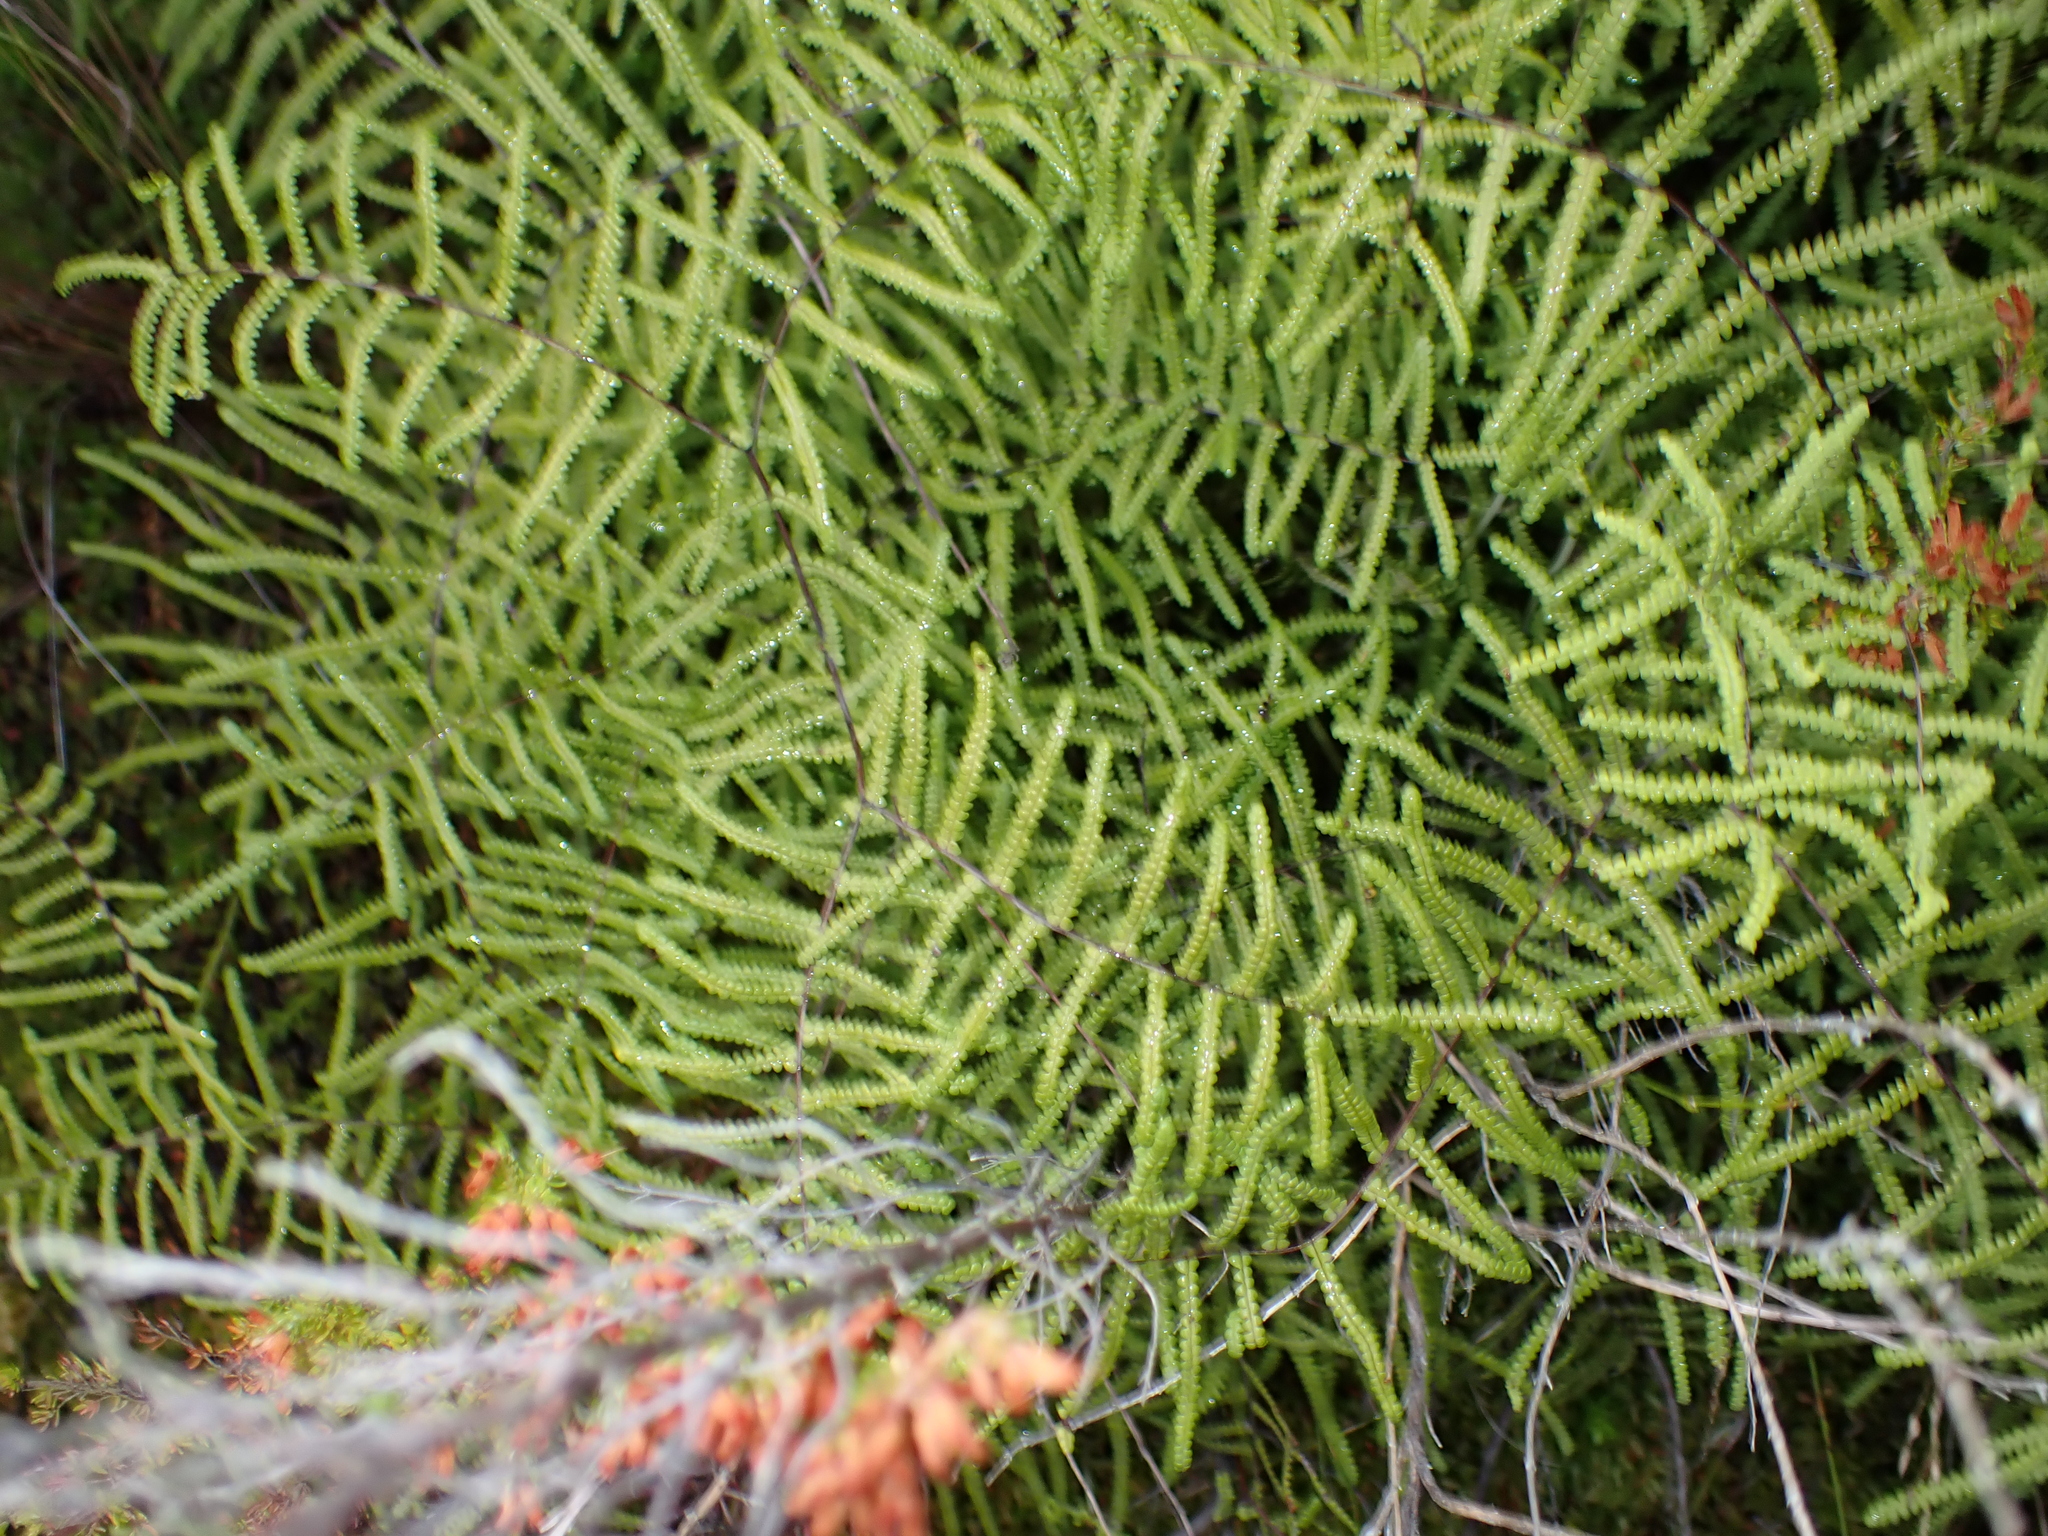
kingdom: Plantae
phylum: Tracheophyta
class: Polypodiopsida
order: Gleicheniales
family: Gleicheniaceae
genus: Gleichenia
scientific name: Gleichenia polypodioides
